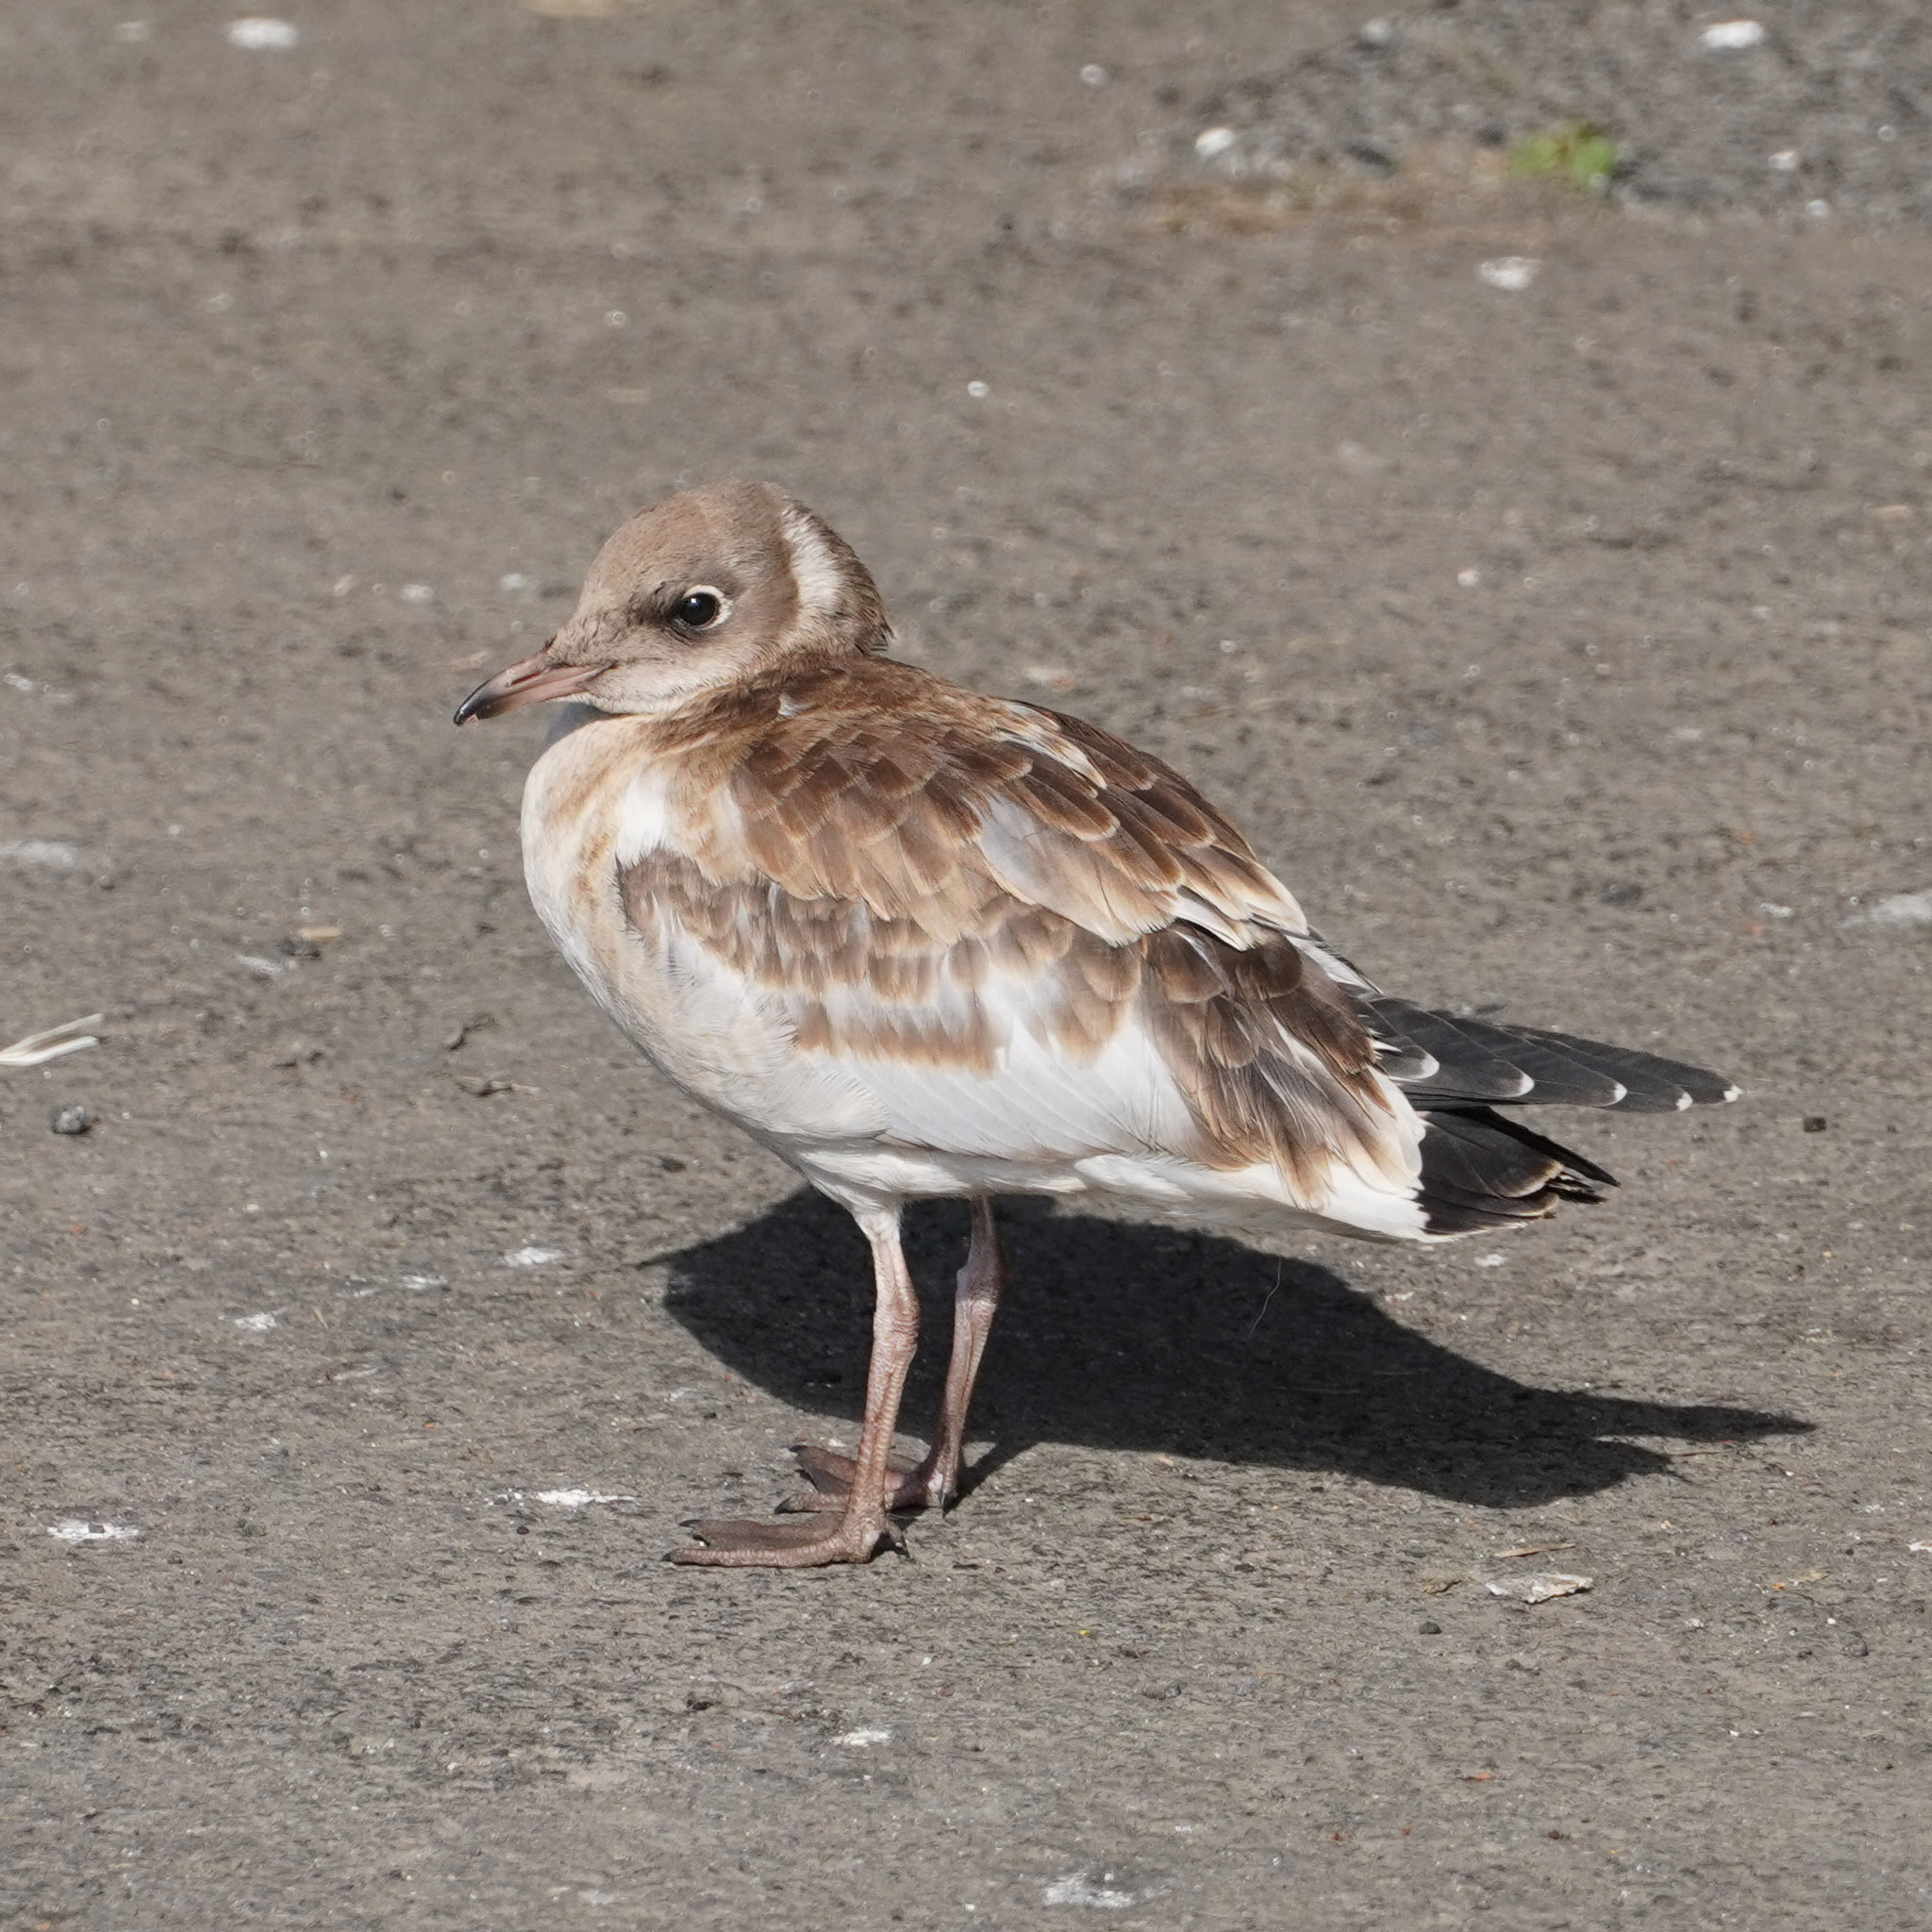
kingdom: Animalia
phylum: Chordata
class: Aves
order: Charadriiformes
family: Laridae
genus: Chroicocephalus
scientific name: Chroicocephalus ridibundus
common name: Black-headed gull
